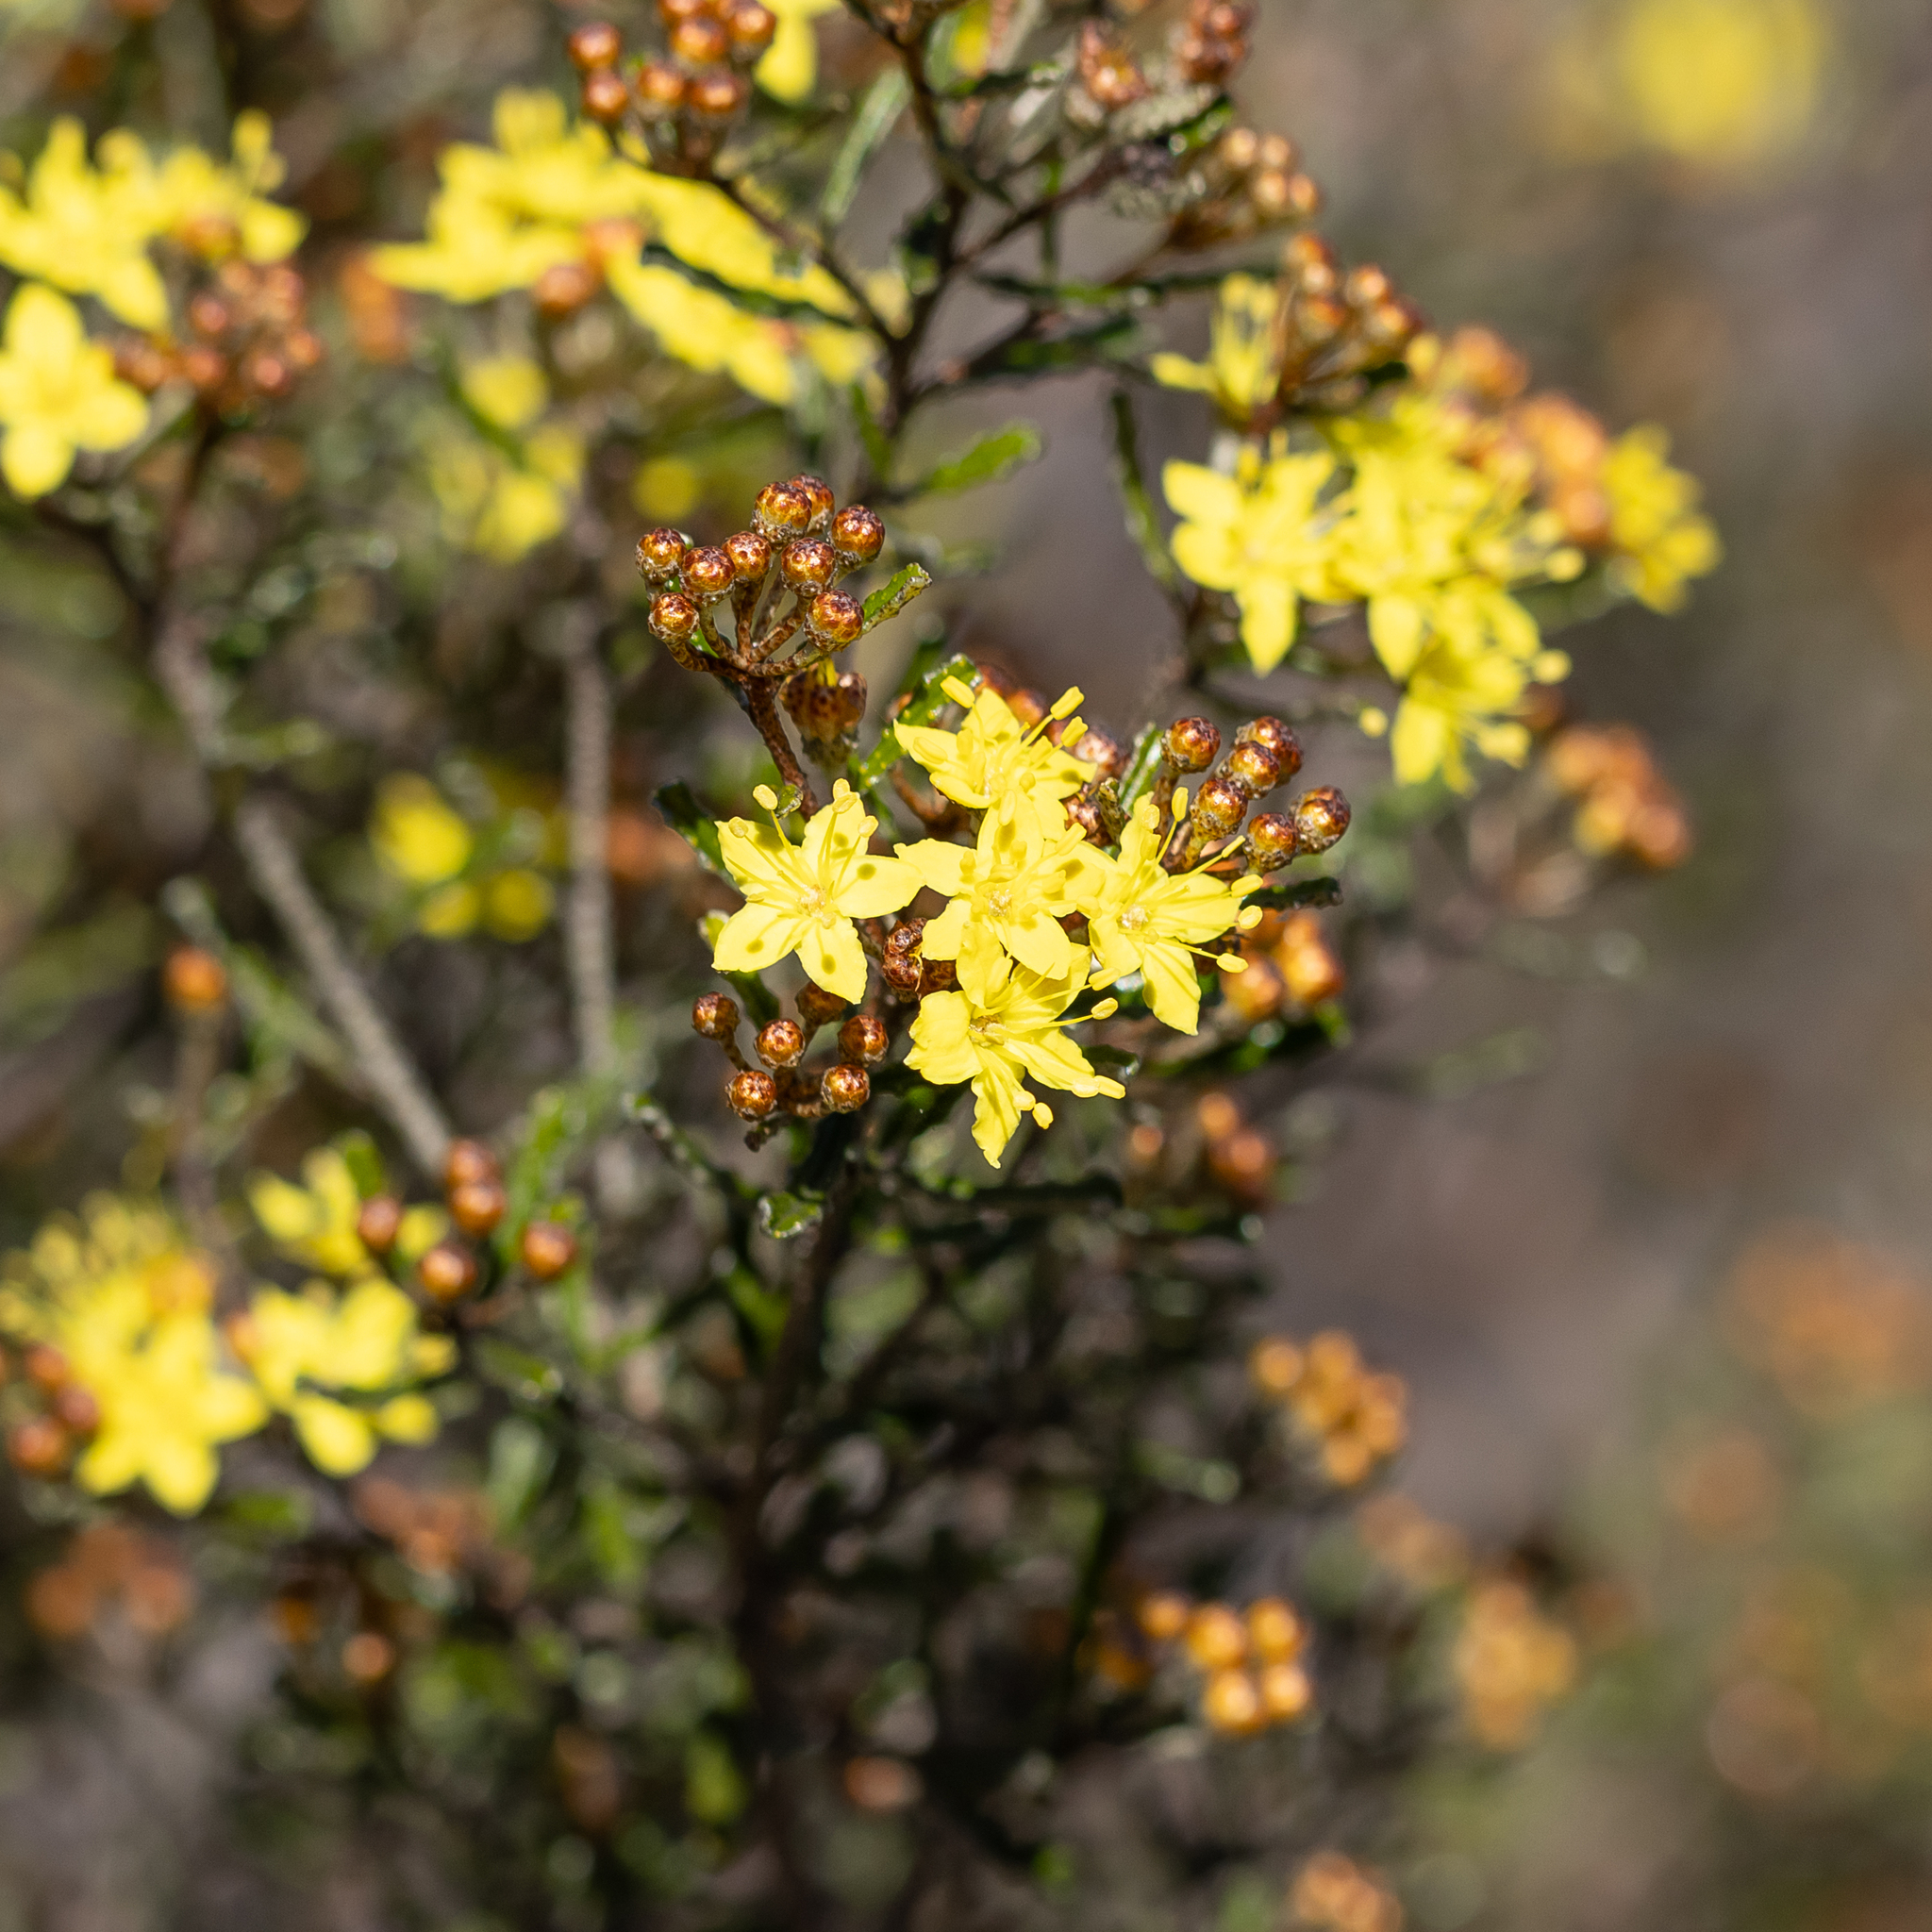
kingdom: Plantae
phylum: Tracheophyta
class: Magnoliopsida
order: Sapindales
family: Rutaceae
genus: Phebalium
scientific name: Phebalium bullatum
